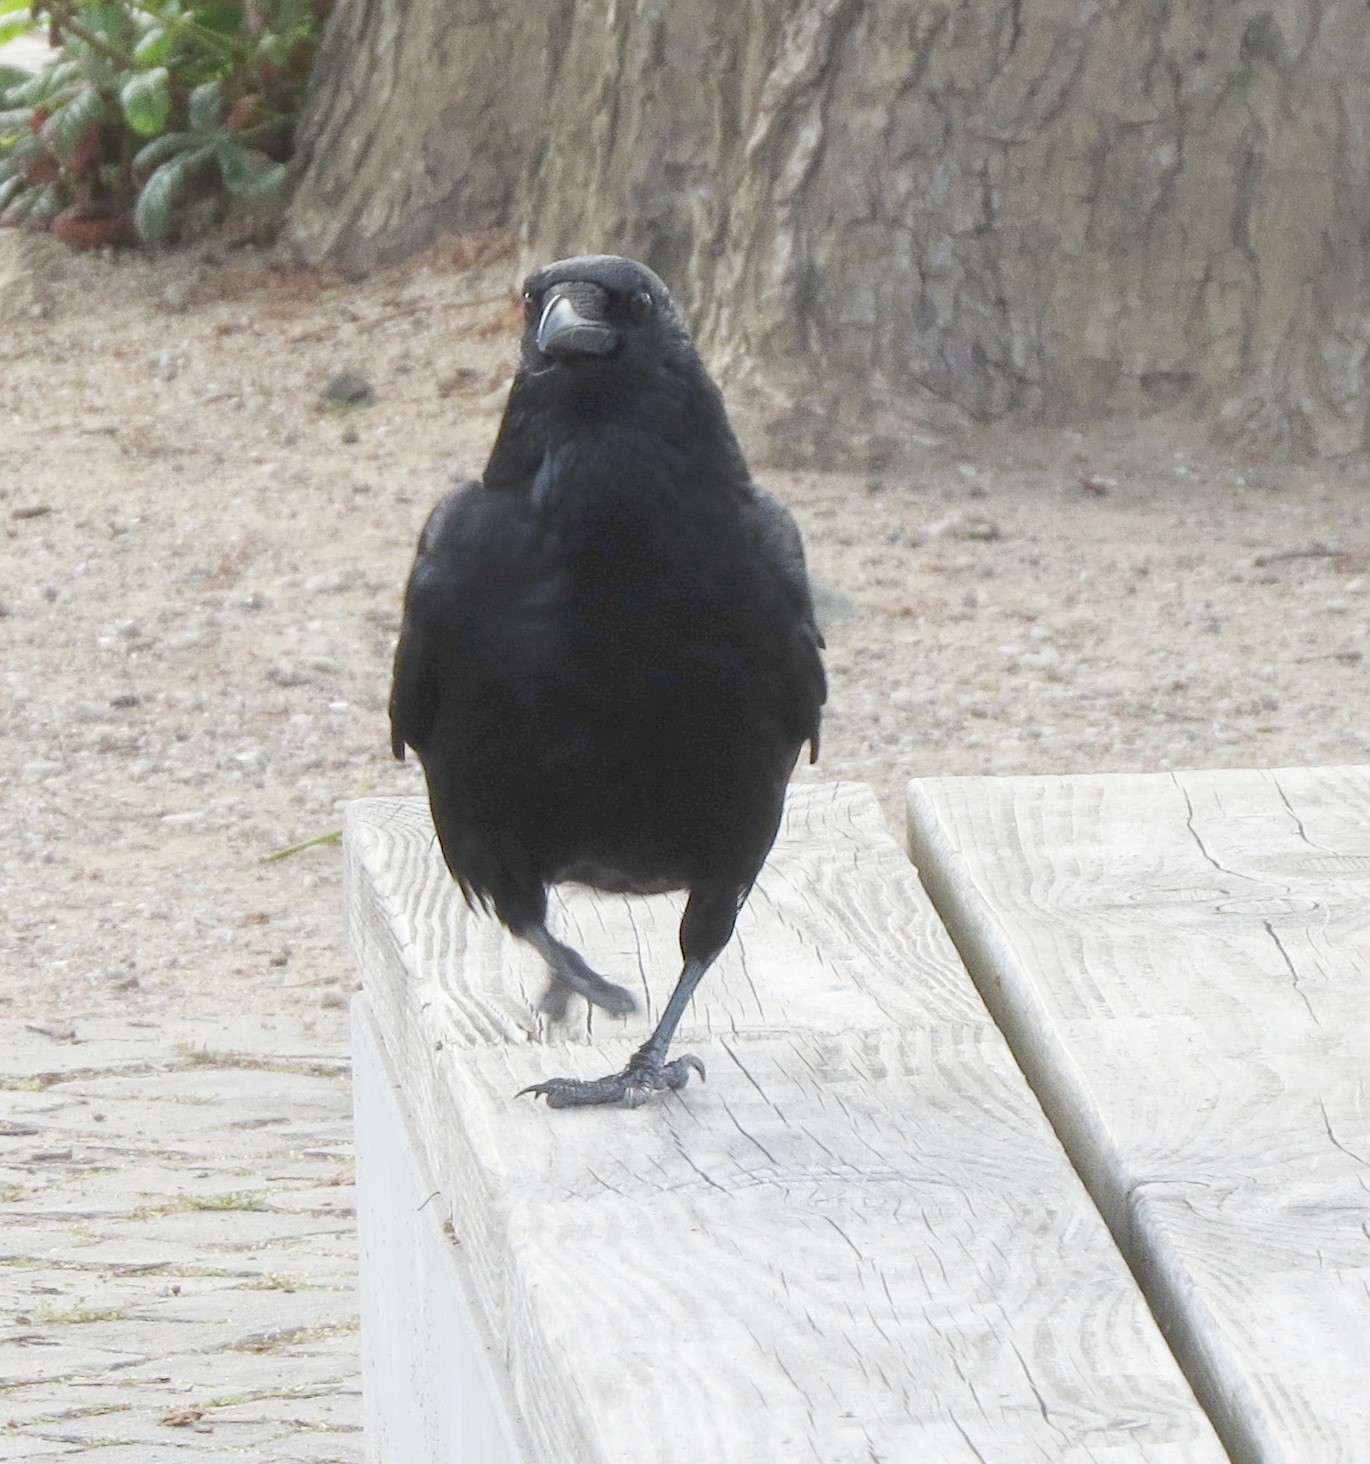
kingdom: Animalia
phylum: Chordata
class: Aves
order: Passeriformes
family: Corvidae
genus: Corvus
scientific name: Corvus corone
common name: Carrion crow
